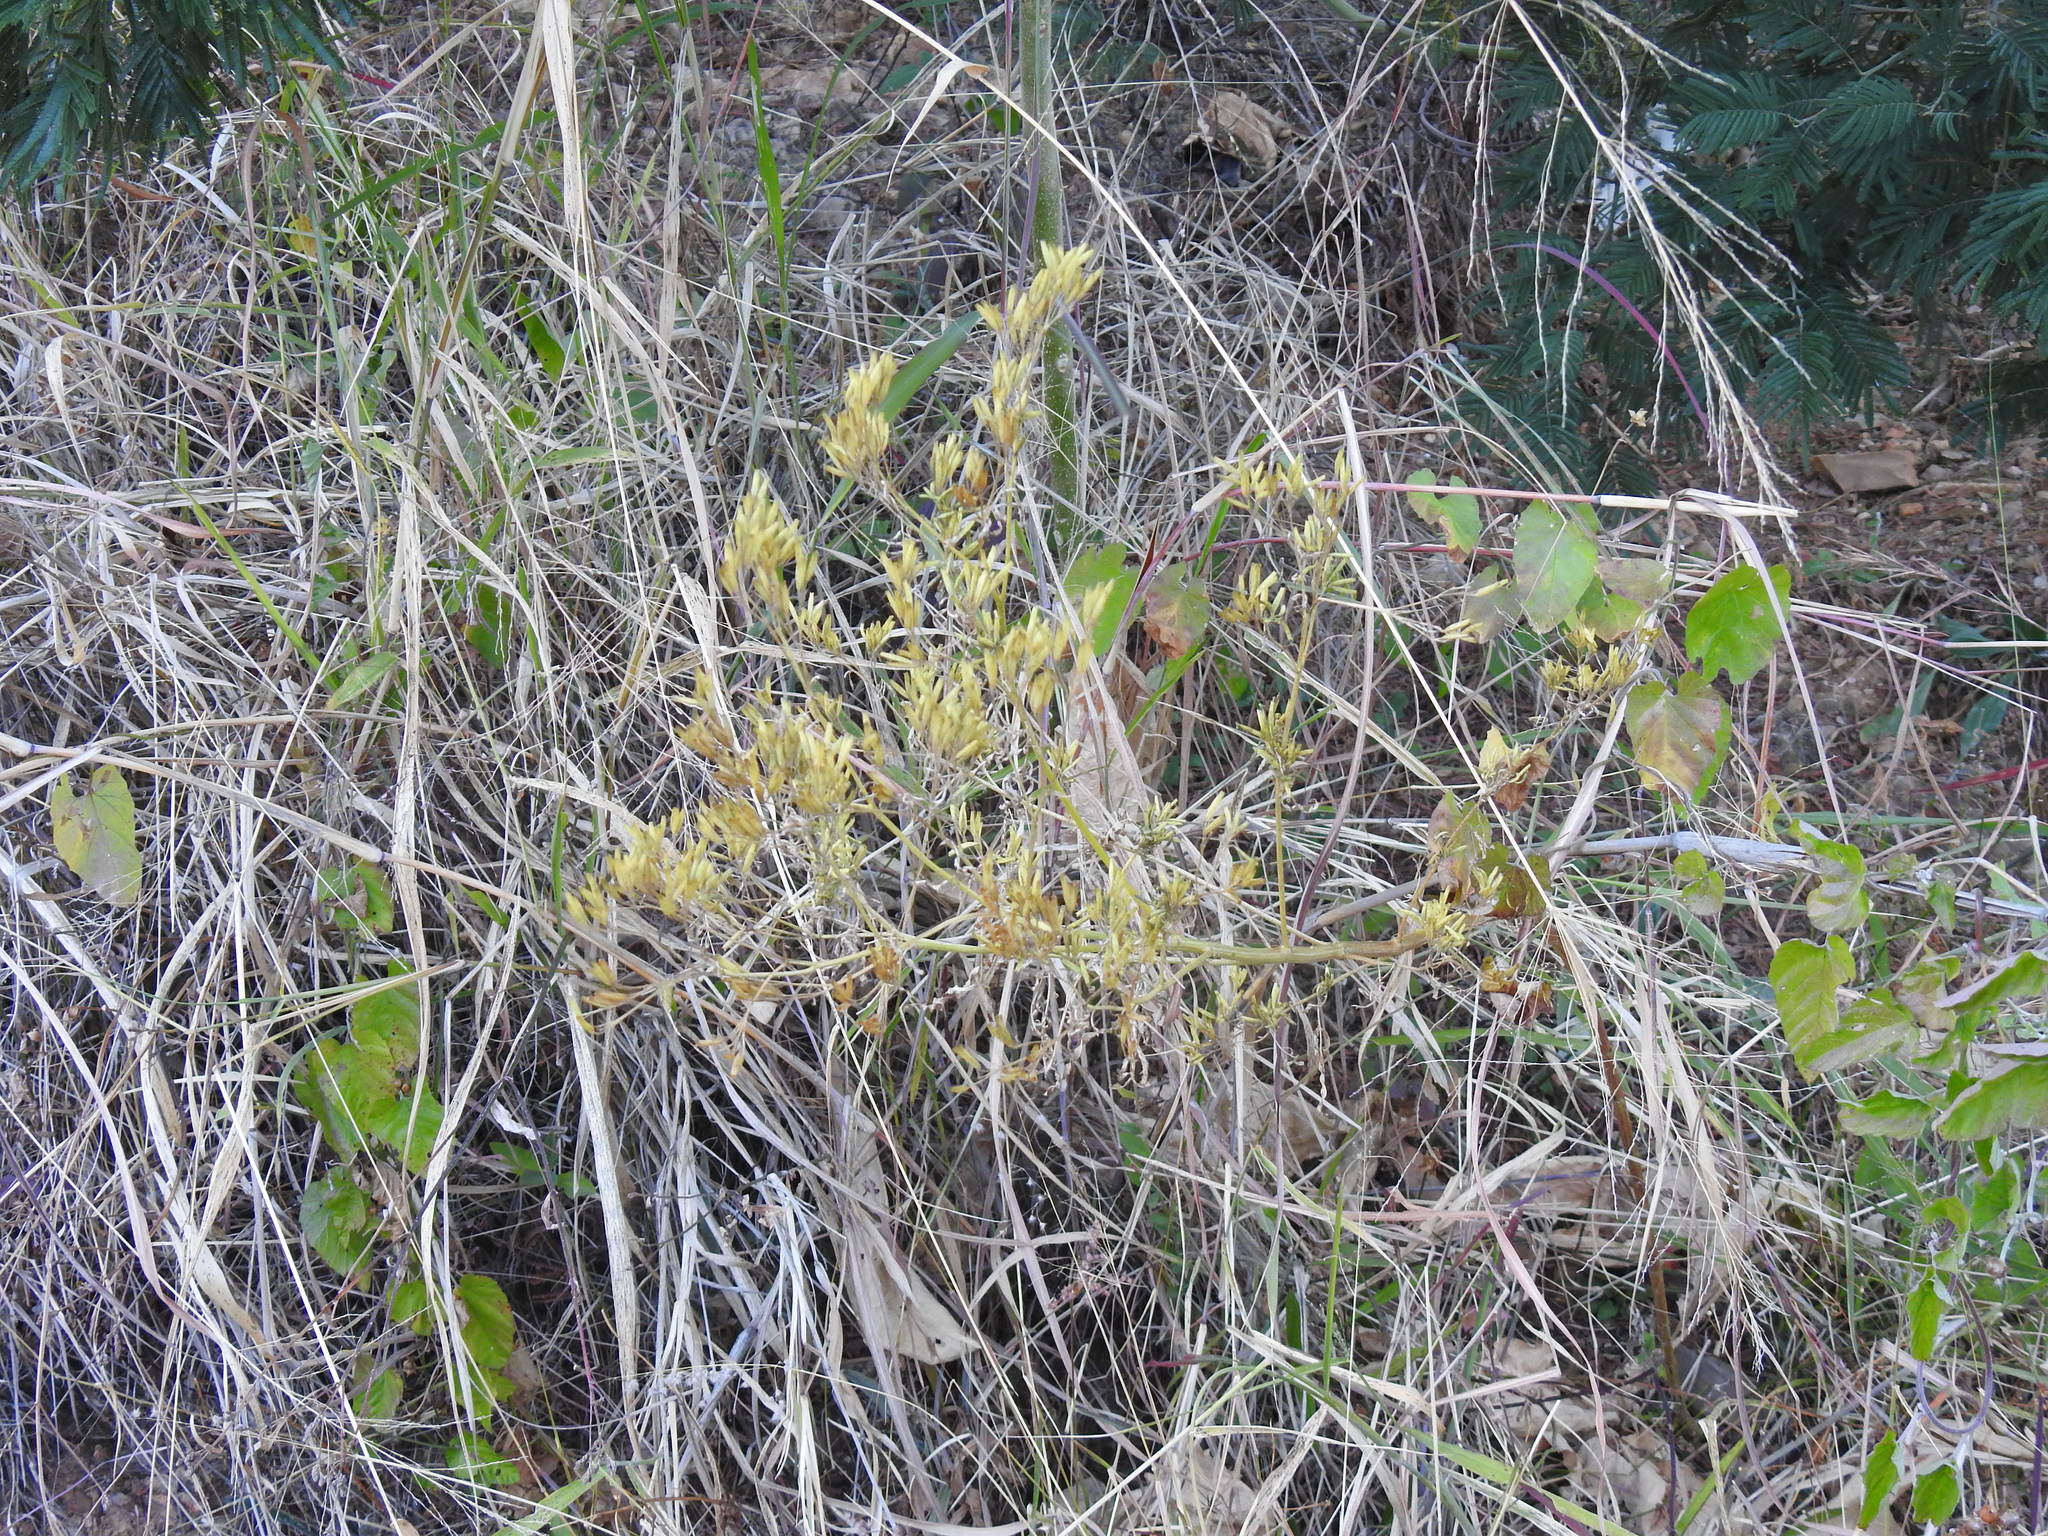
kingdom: Plantae
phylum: Tracheophyta
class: Magnoliopsida
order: Asterales
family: Asteraceae
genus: Tagetes
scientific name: Tagetes minuta
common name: Muster john henry
